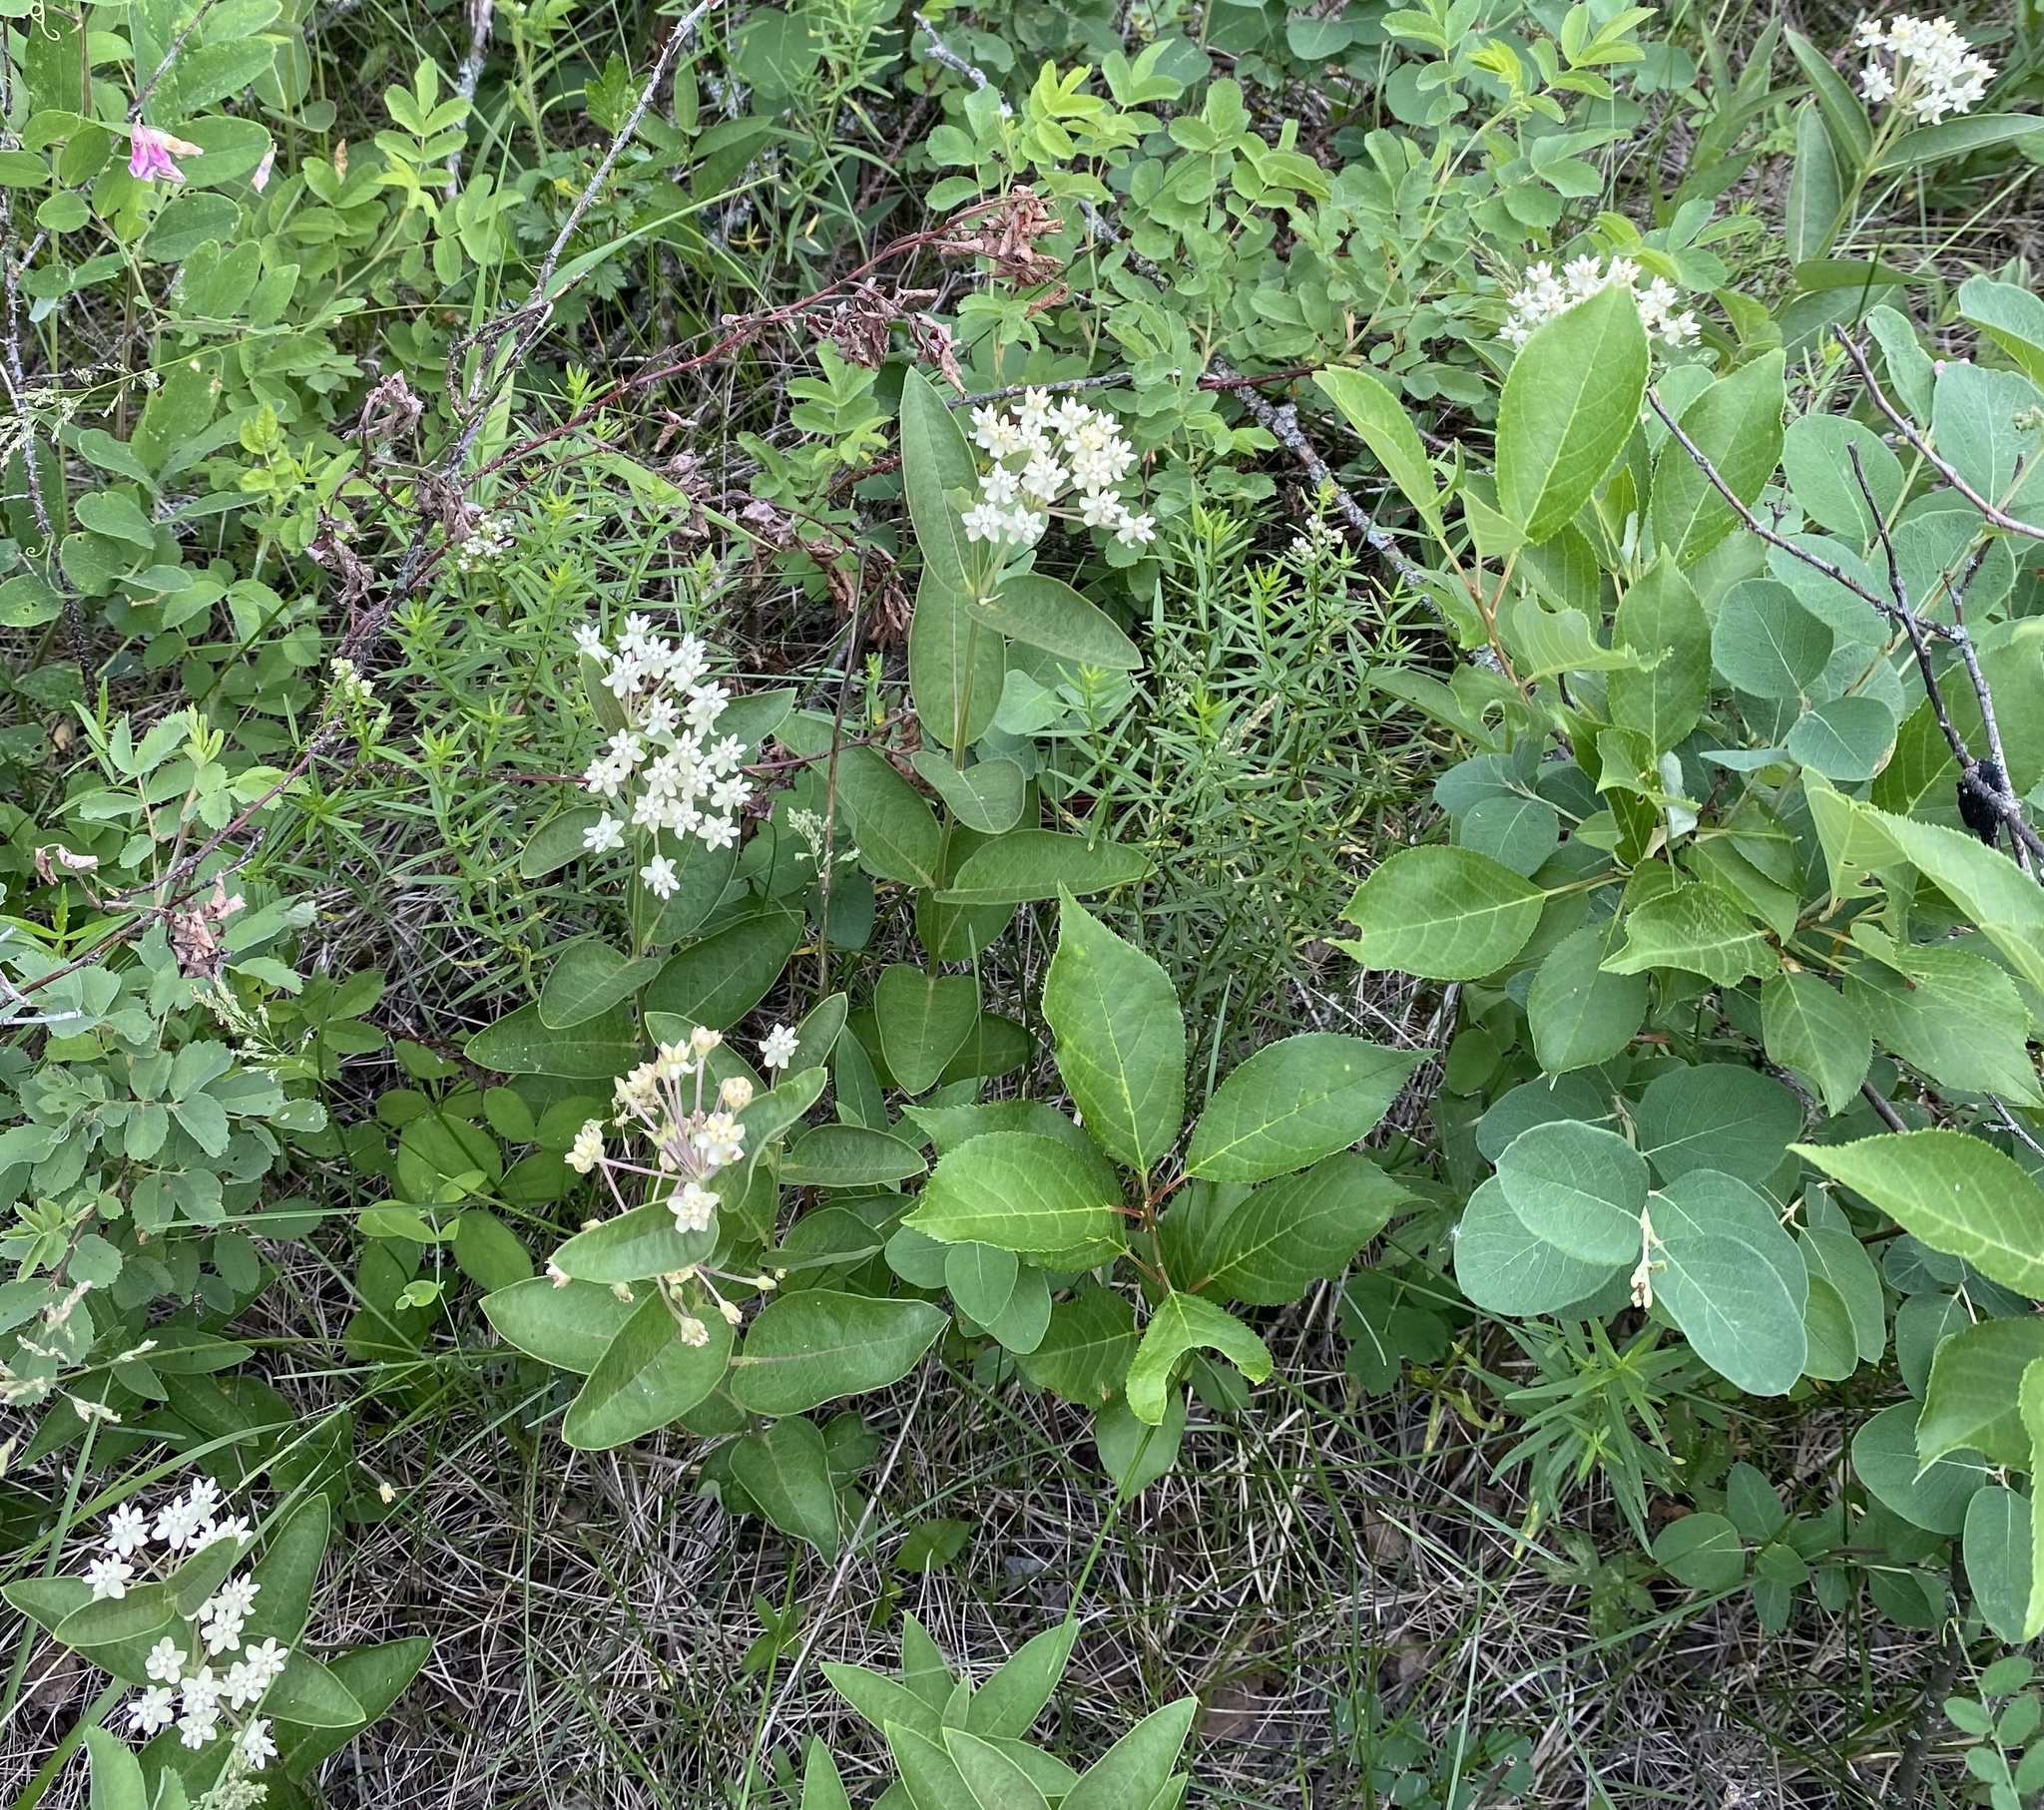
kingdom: Plantae
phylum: Tracheophyta
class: Magnoliopsida
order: Gentianales
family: Apocynaceae
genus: Asclepias
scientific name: Asclepias ovalifolia
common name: Dwarf milkweed
